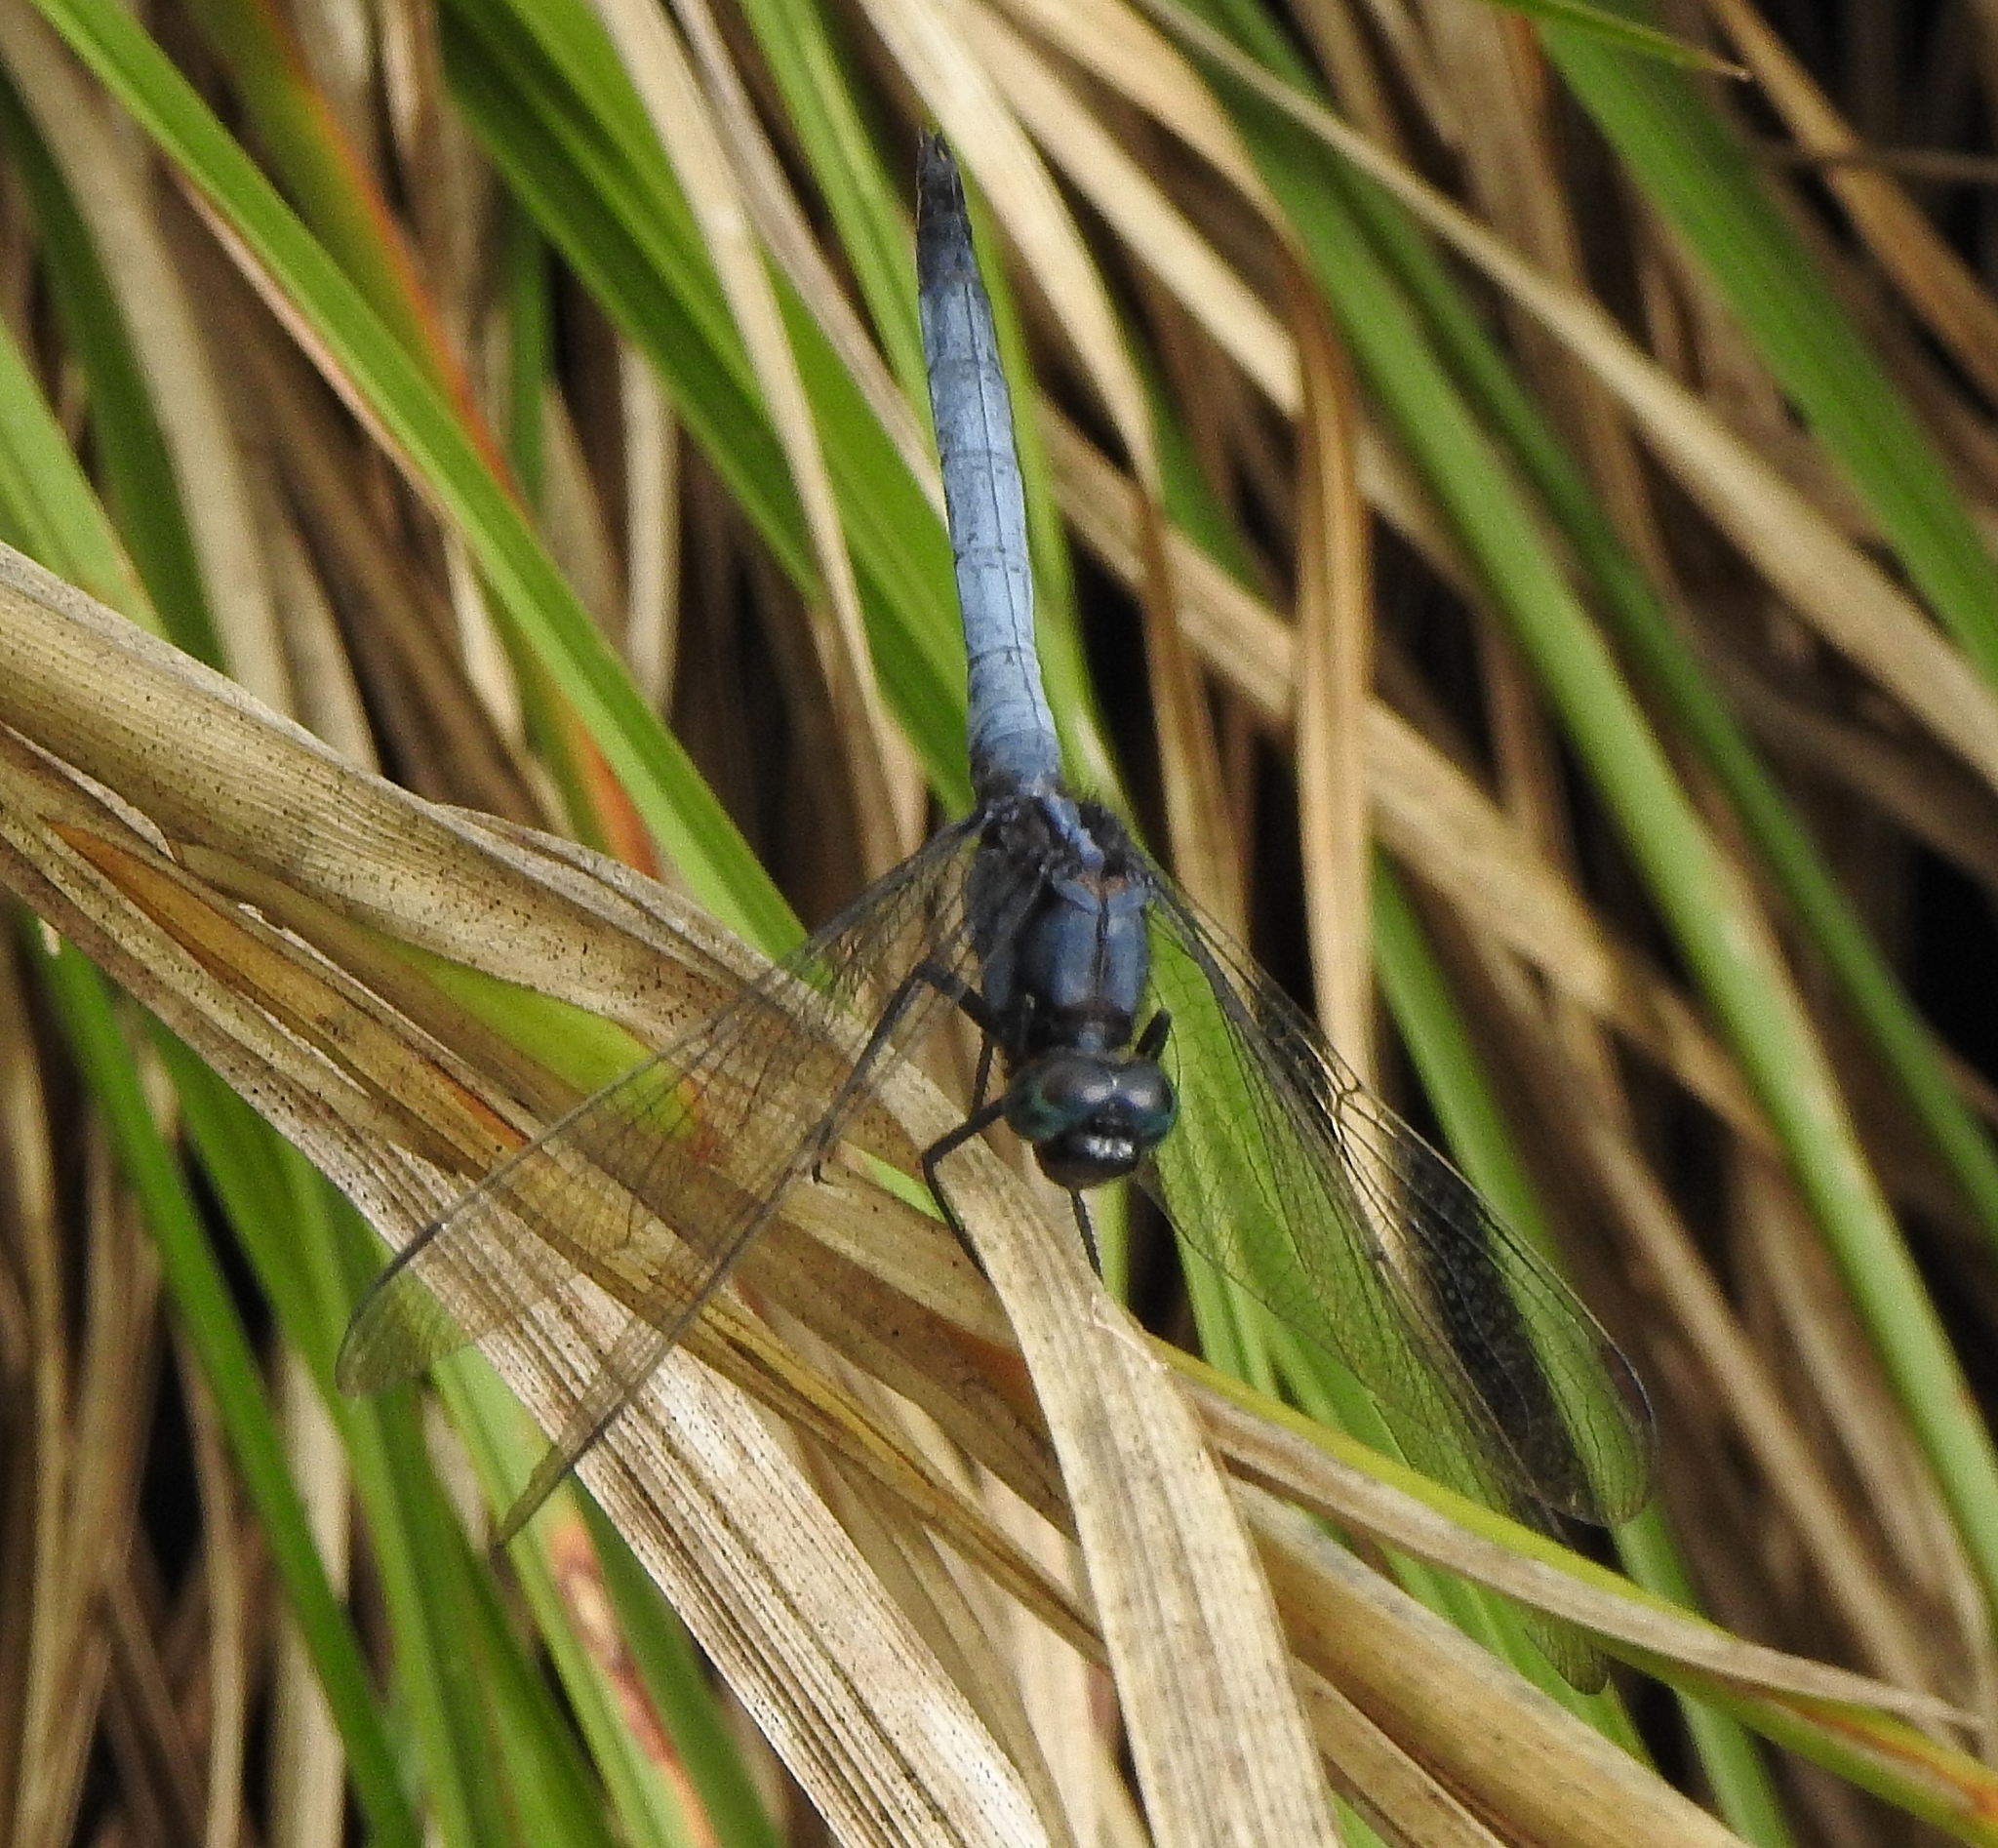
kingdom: Animalia
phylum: Arthropoda
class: Insecta
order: Odonata
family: Libellulidae
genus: Orthetrum
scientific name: Orthetrum glaucum
